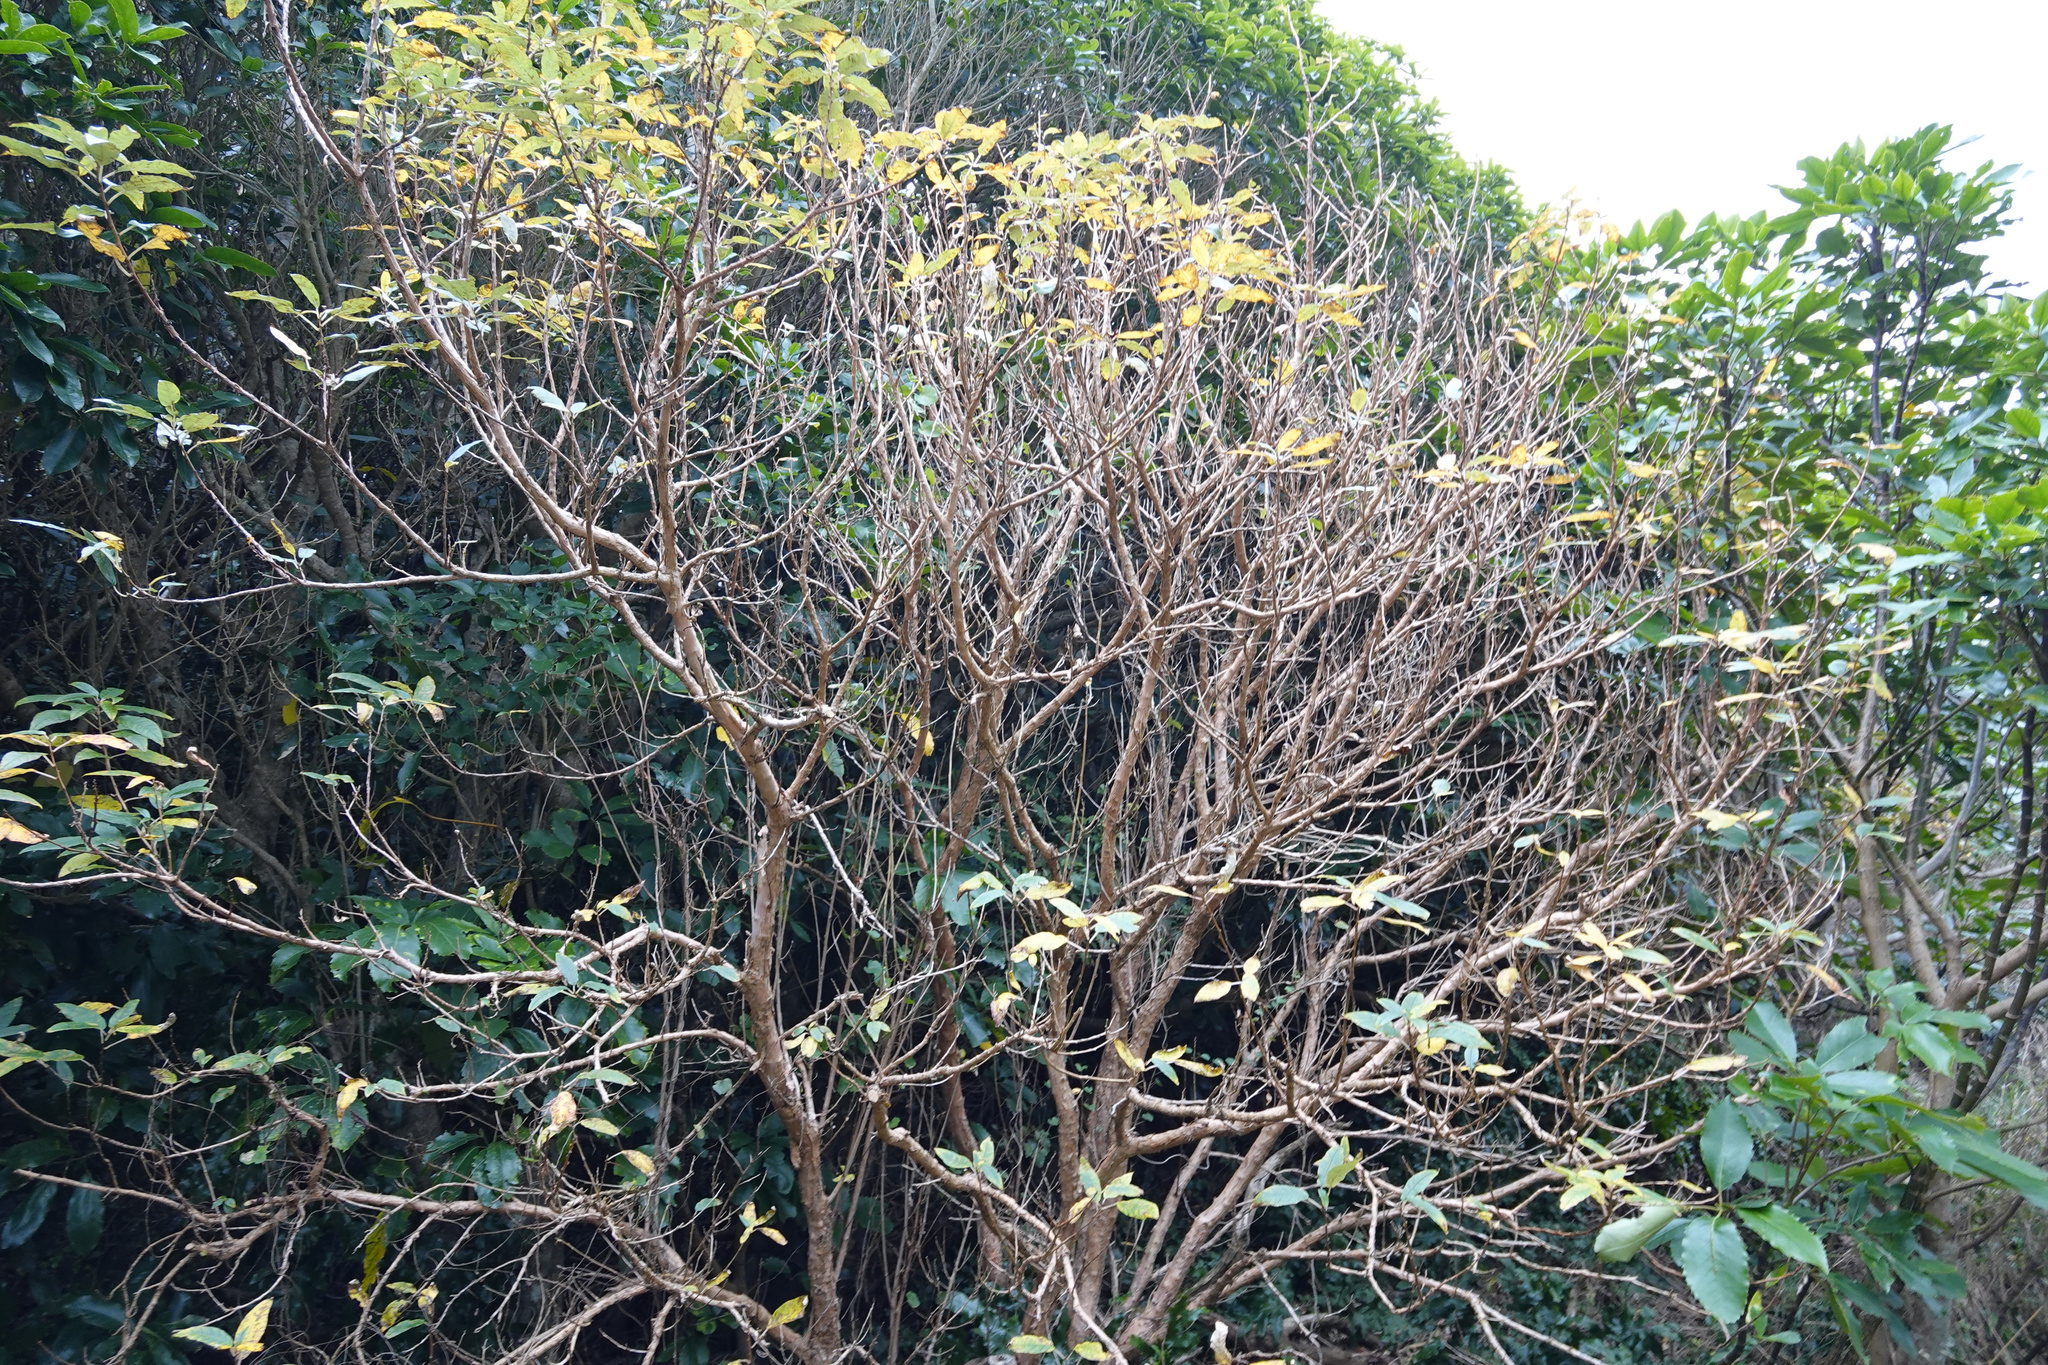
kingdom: Plantae
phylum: Tracheophyta
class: Magnoliopsida
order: Myrtales
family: Onagraceae
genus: Fuchsia
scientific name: Fuchsia excorticata
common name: Tree fuchsia
